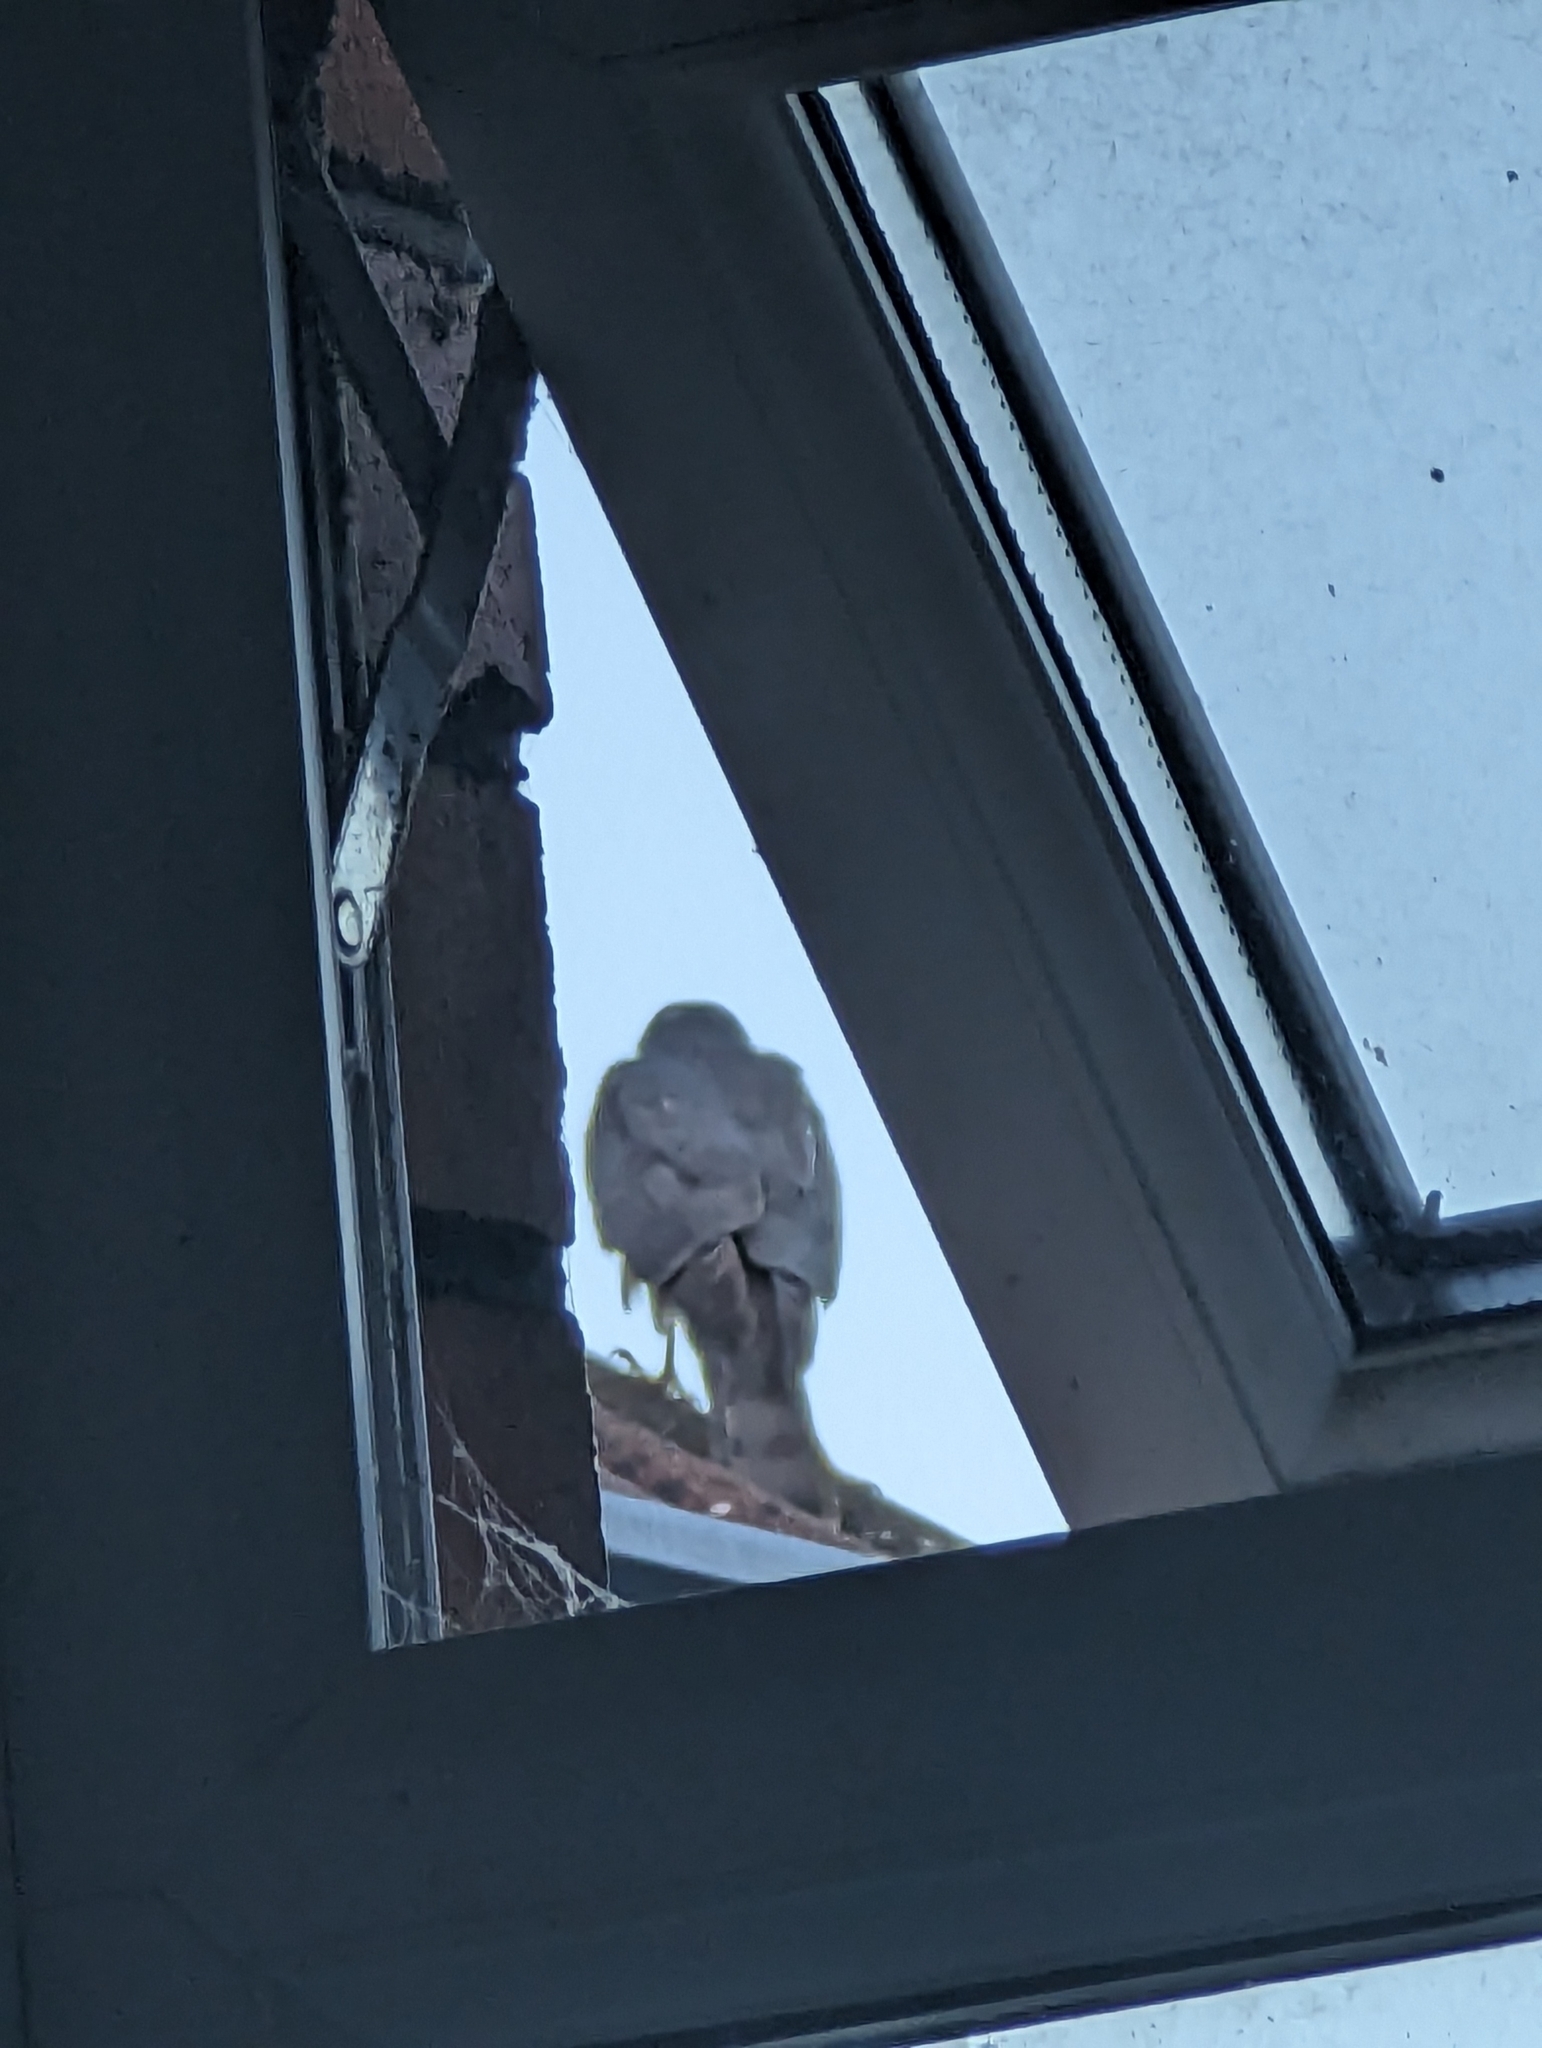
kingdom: Animalia
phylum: Chordata
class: Aves
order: Accipitriformes
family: Accipitridae
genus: Accipiter
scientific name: Accipiter nisus
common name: Eurasian sparrowhawk
